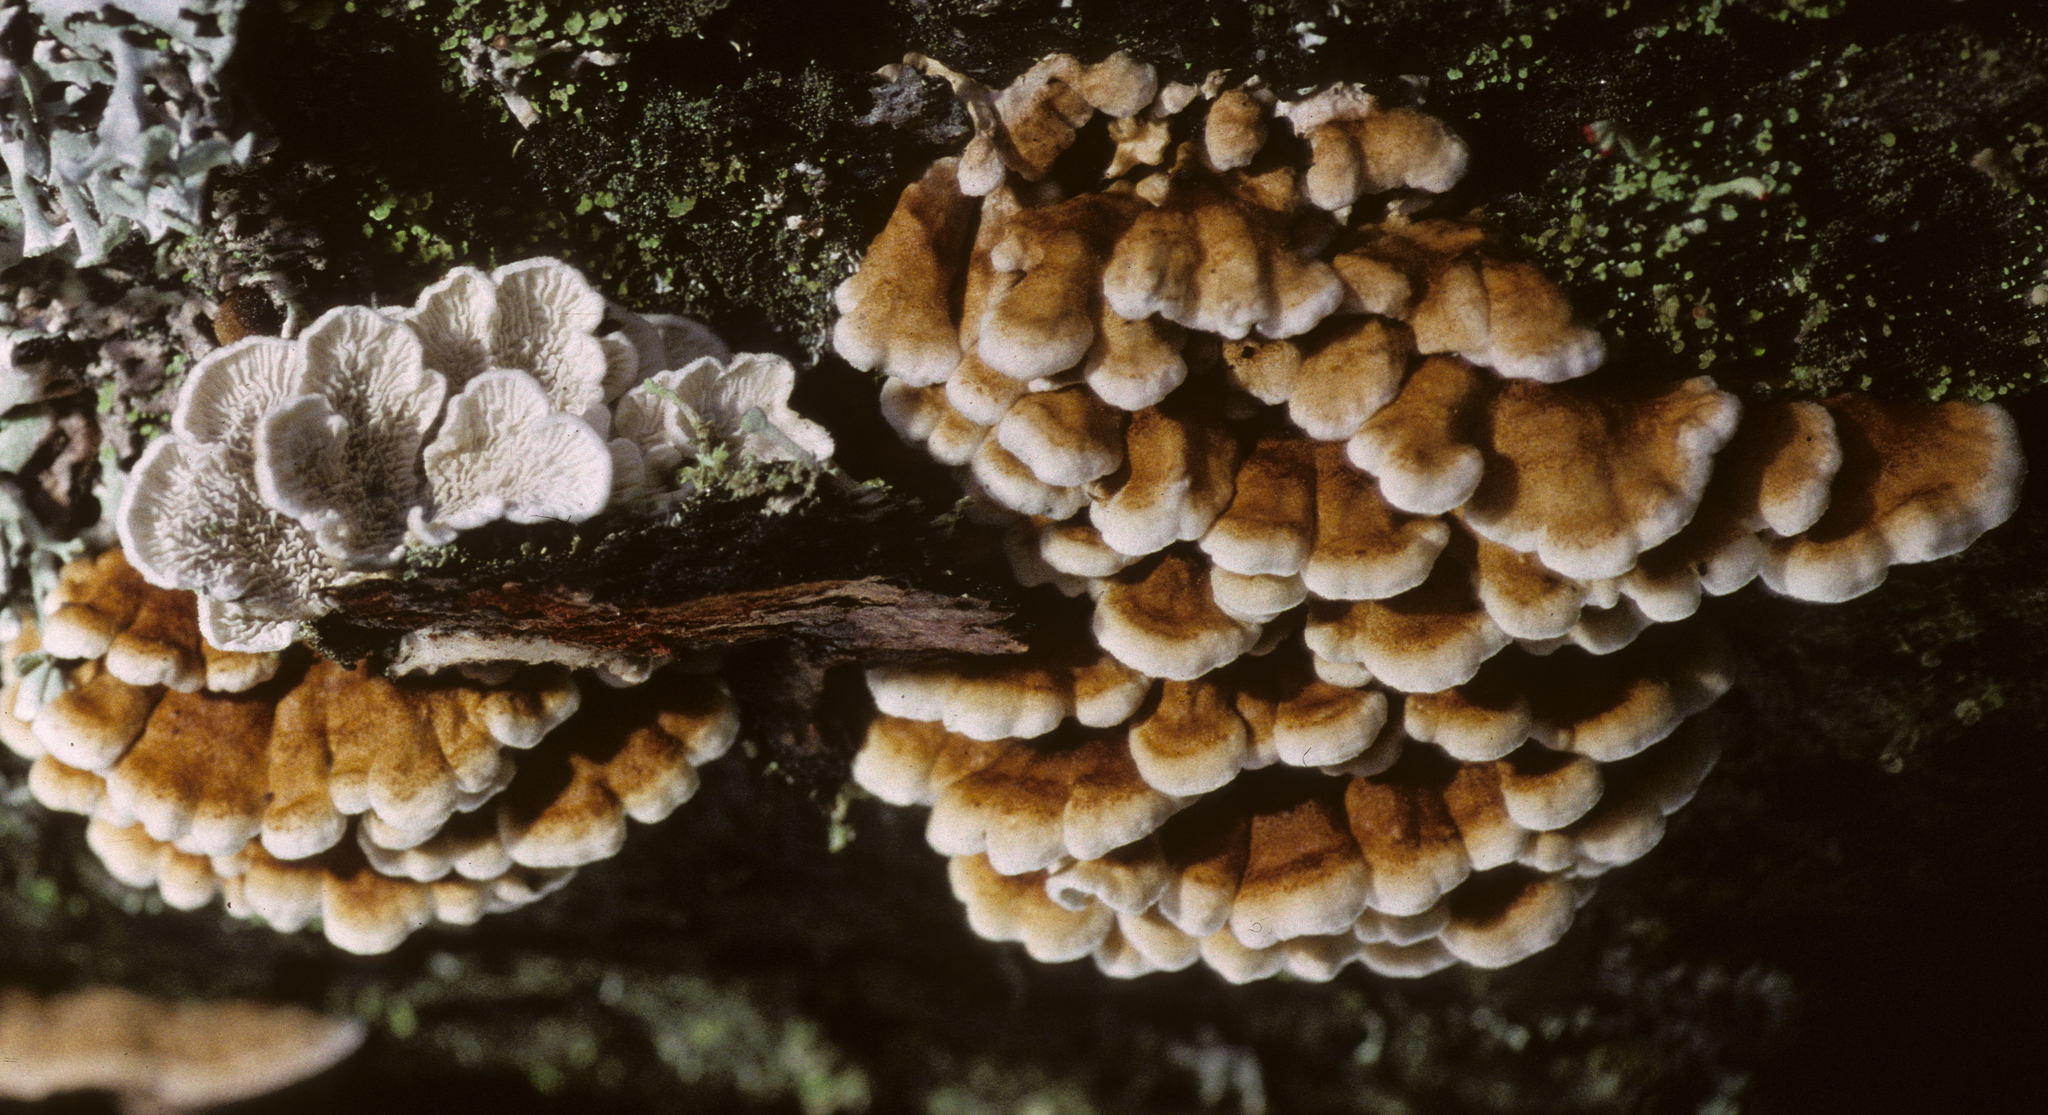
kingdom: Fungi
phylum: Basidiomycota
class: Agaricomycetes
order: Amylocorticiales
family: Amylocorticiaceae
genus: Plicaturopsis
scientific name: Plicaturopsis crispa
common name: Crimped gill
